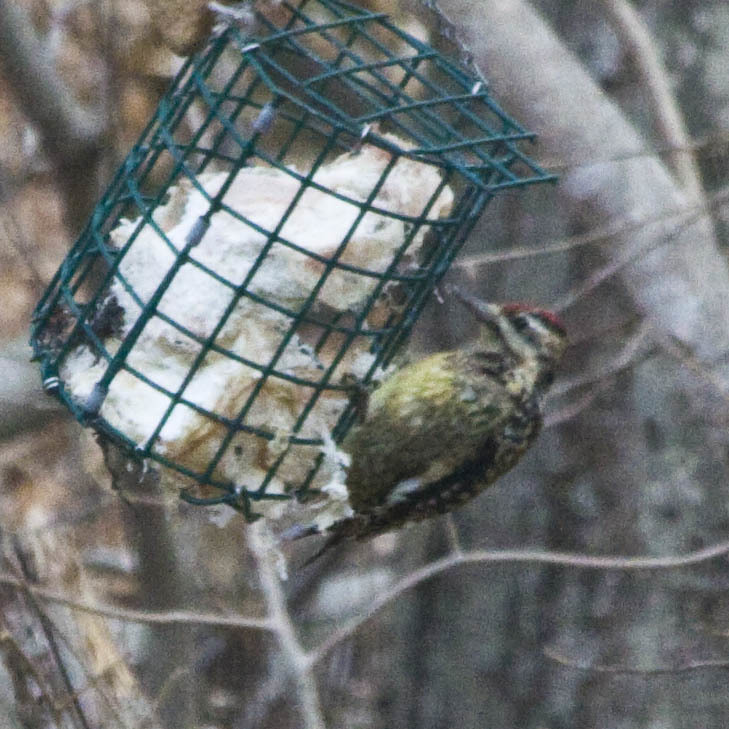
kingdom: Animalia
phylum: Chordata
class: Aves
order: Piciformes
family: Picidae
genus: Sphyrapicus
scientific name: Sphyrapicus varius
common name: Yellow-bellied sapsucker
